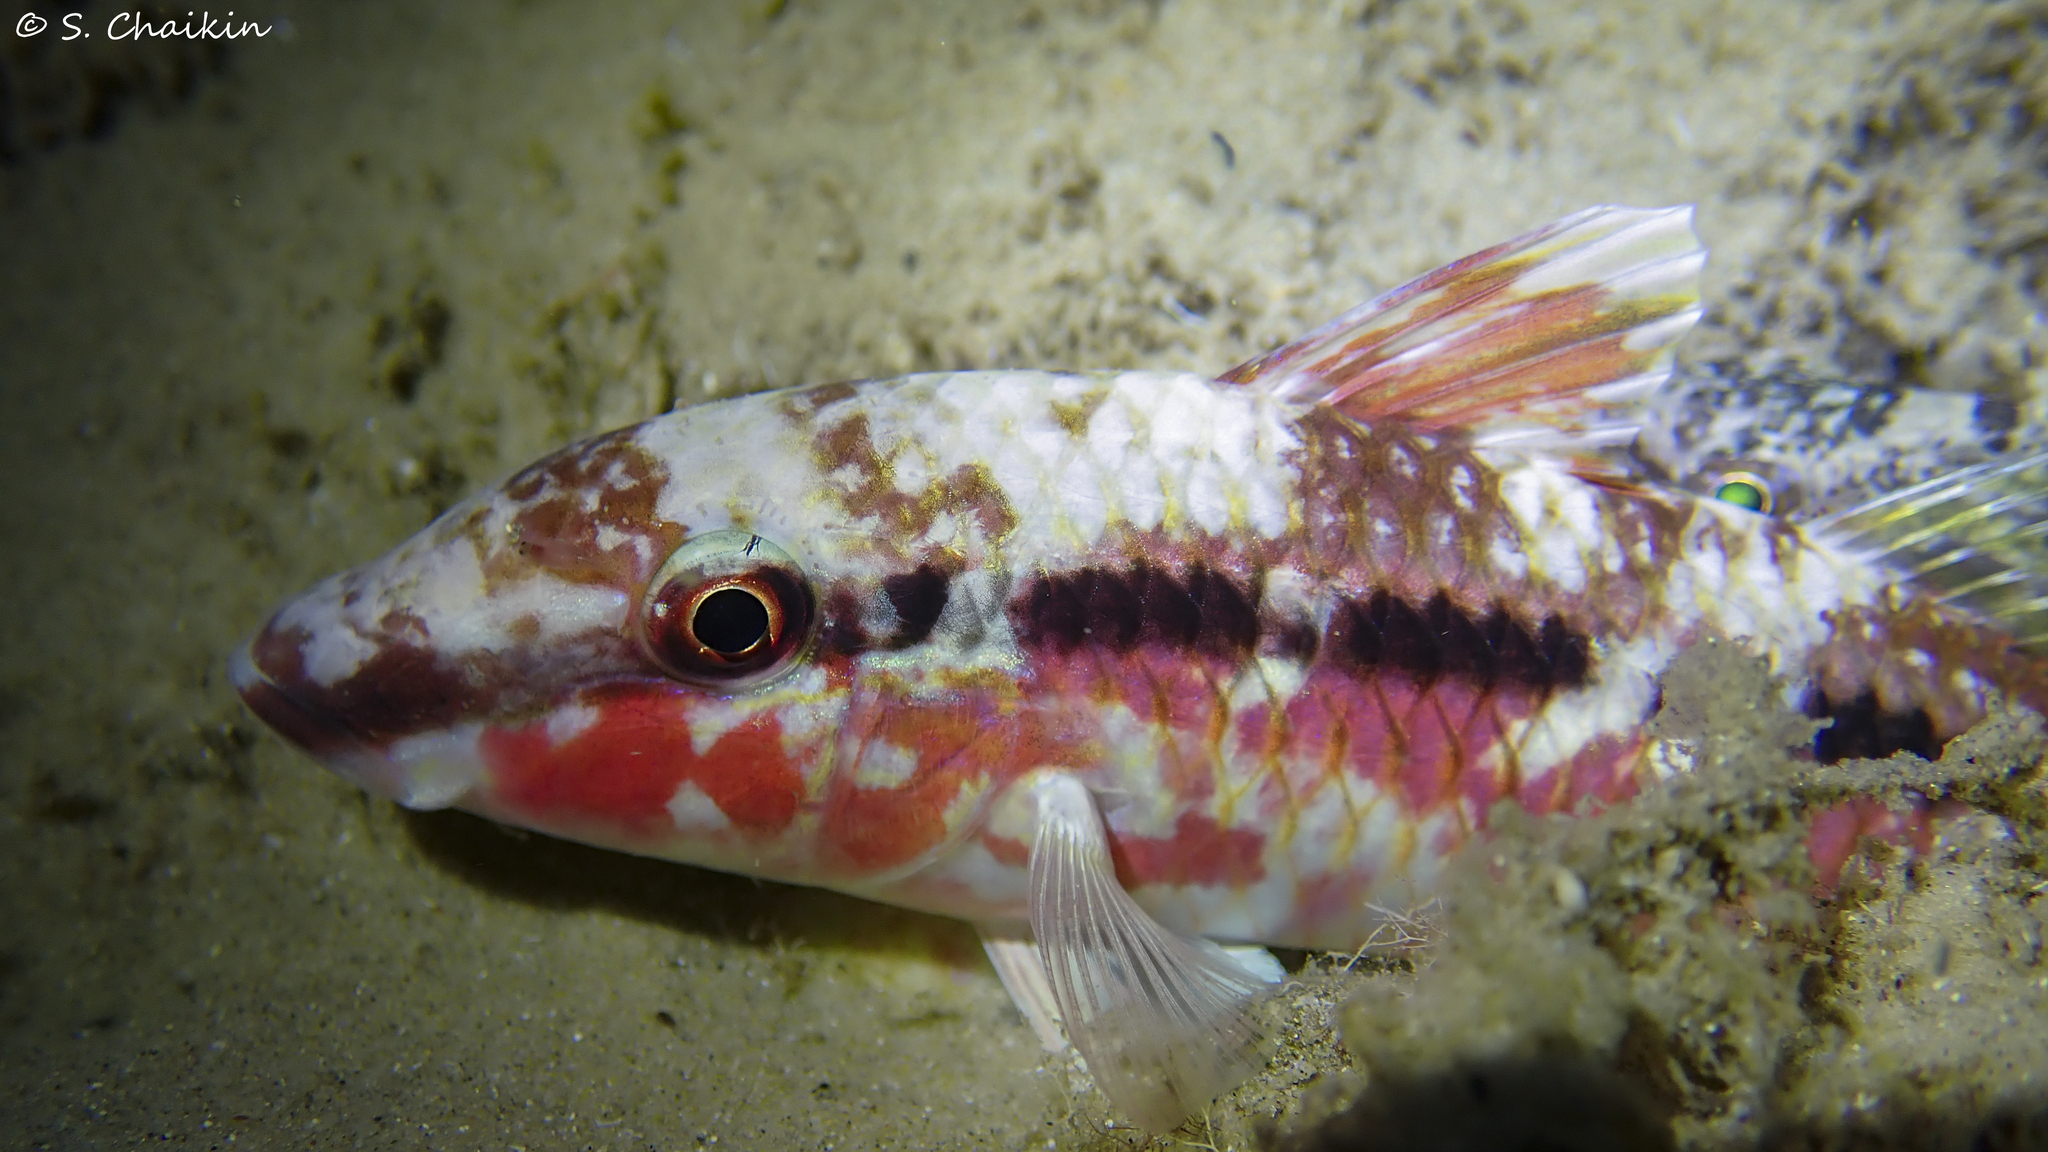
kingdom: Animalia
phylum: Chordata
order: Perciformes
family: Mullidae
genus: Parupeneus
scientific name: Parupeneus forsskali
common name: Red sea goatfish
